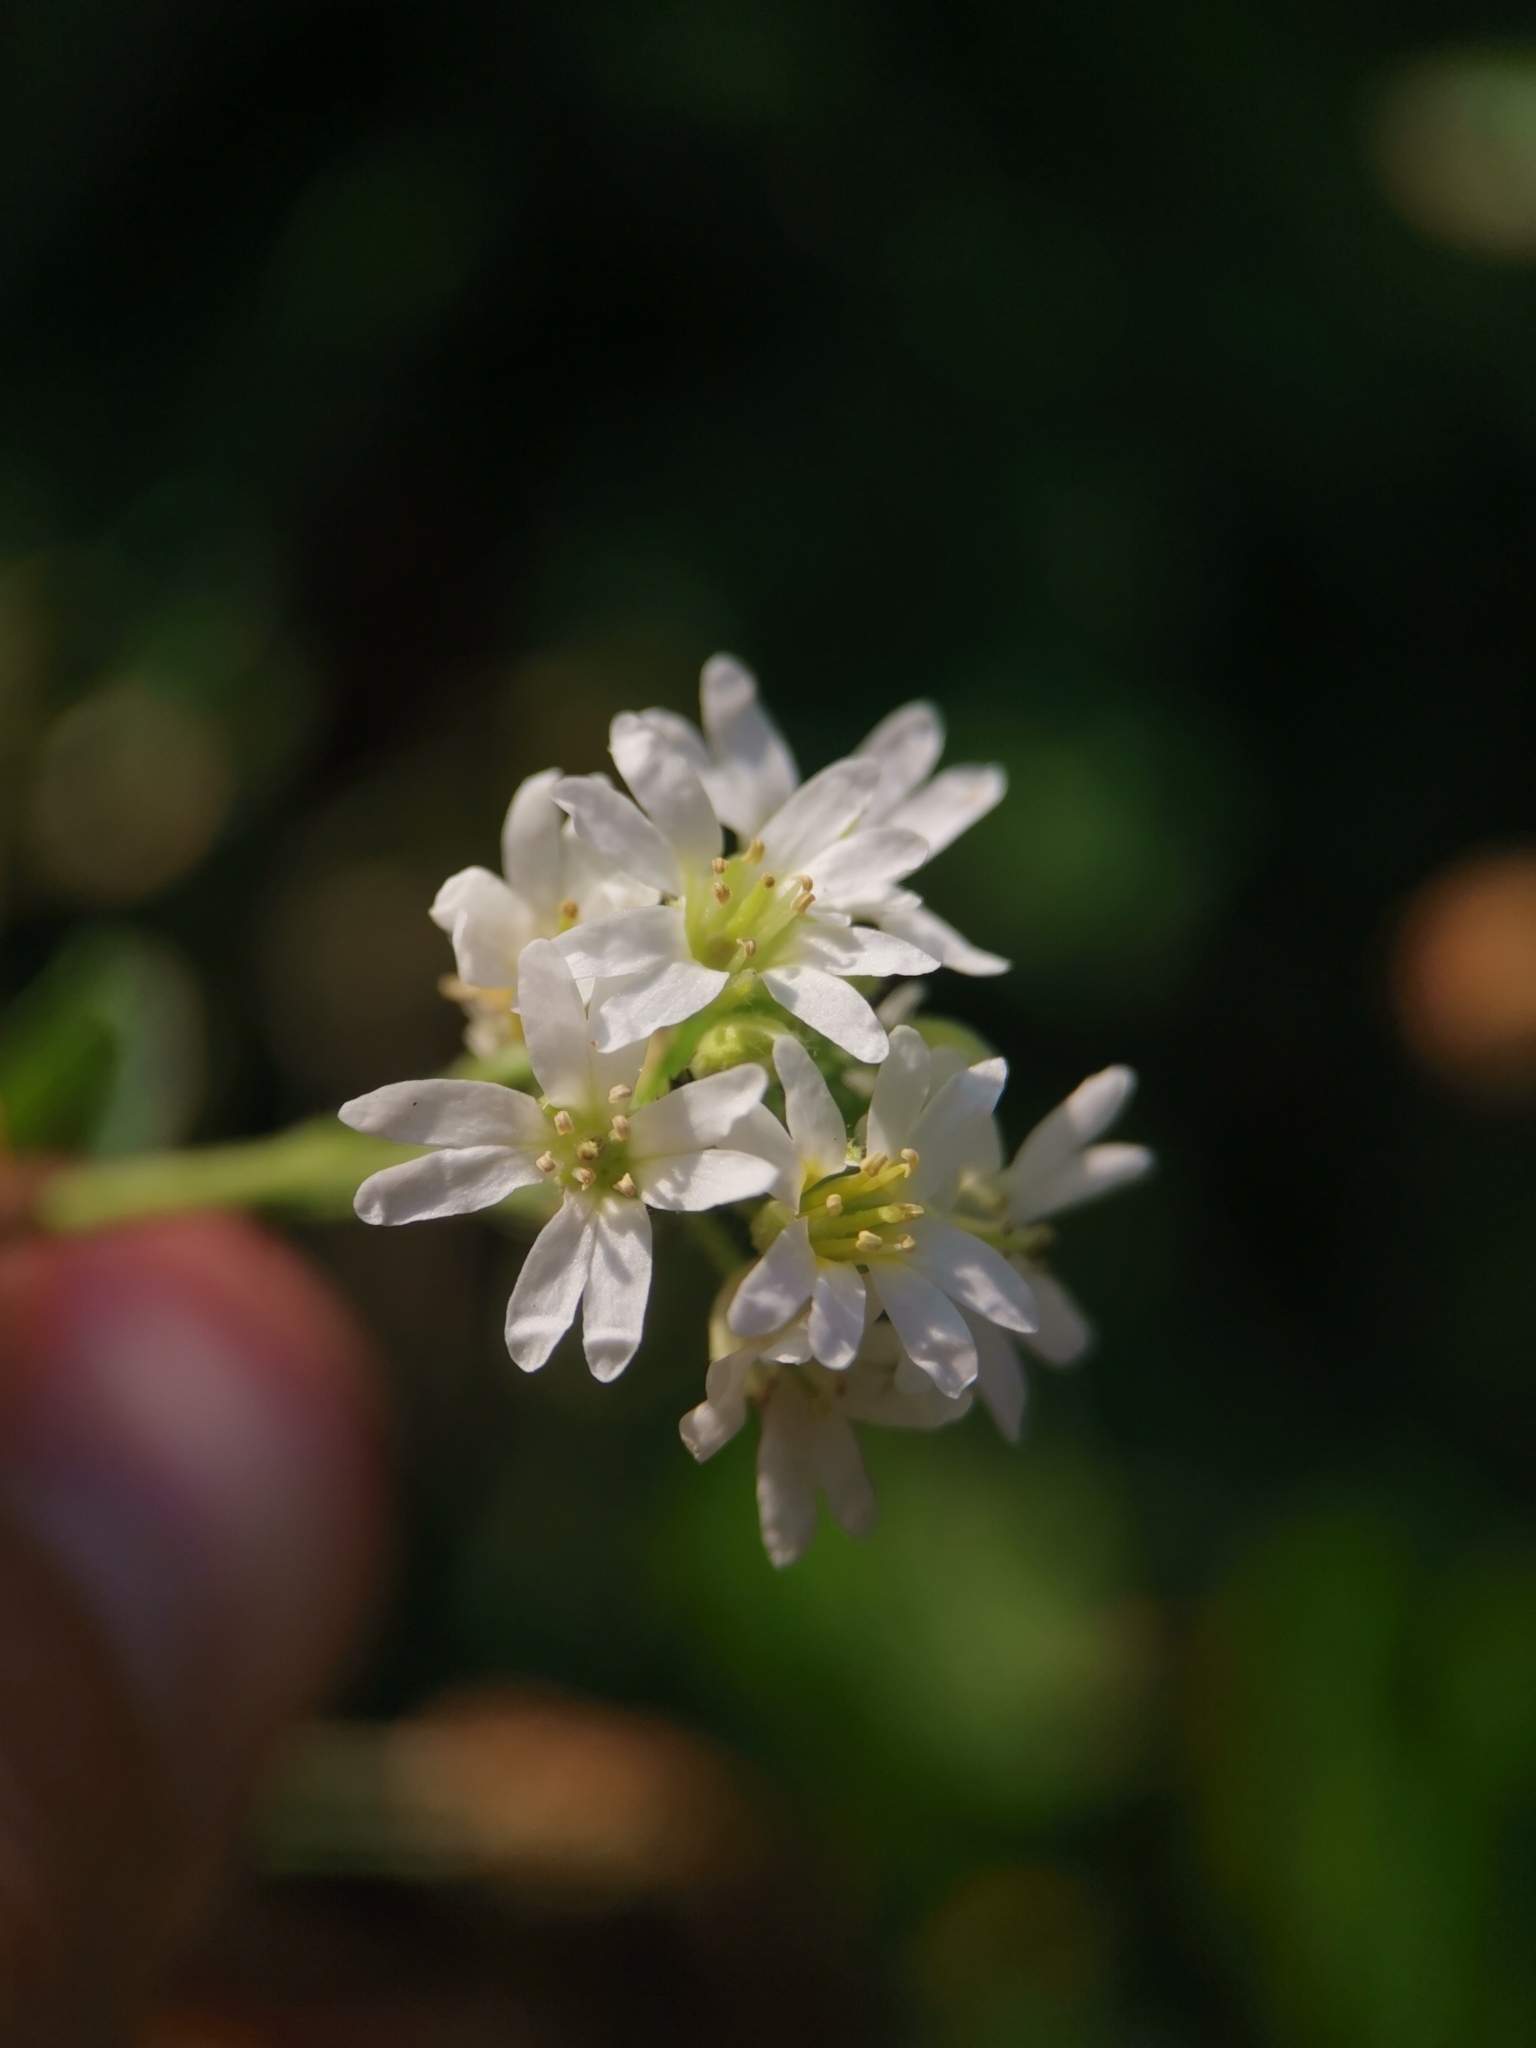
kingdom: Plantae
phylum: Tracheophyta
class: Magnoliopsida
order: Brassicales
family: Brassicaceae
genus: Berteroa
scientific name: Berteroa incana
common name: Hoary alison
